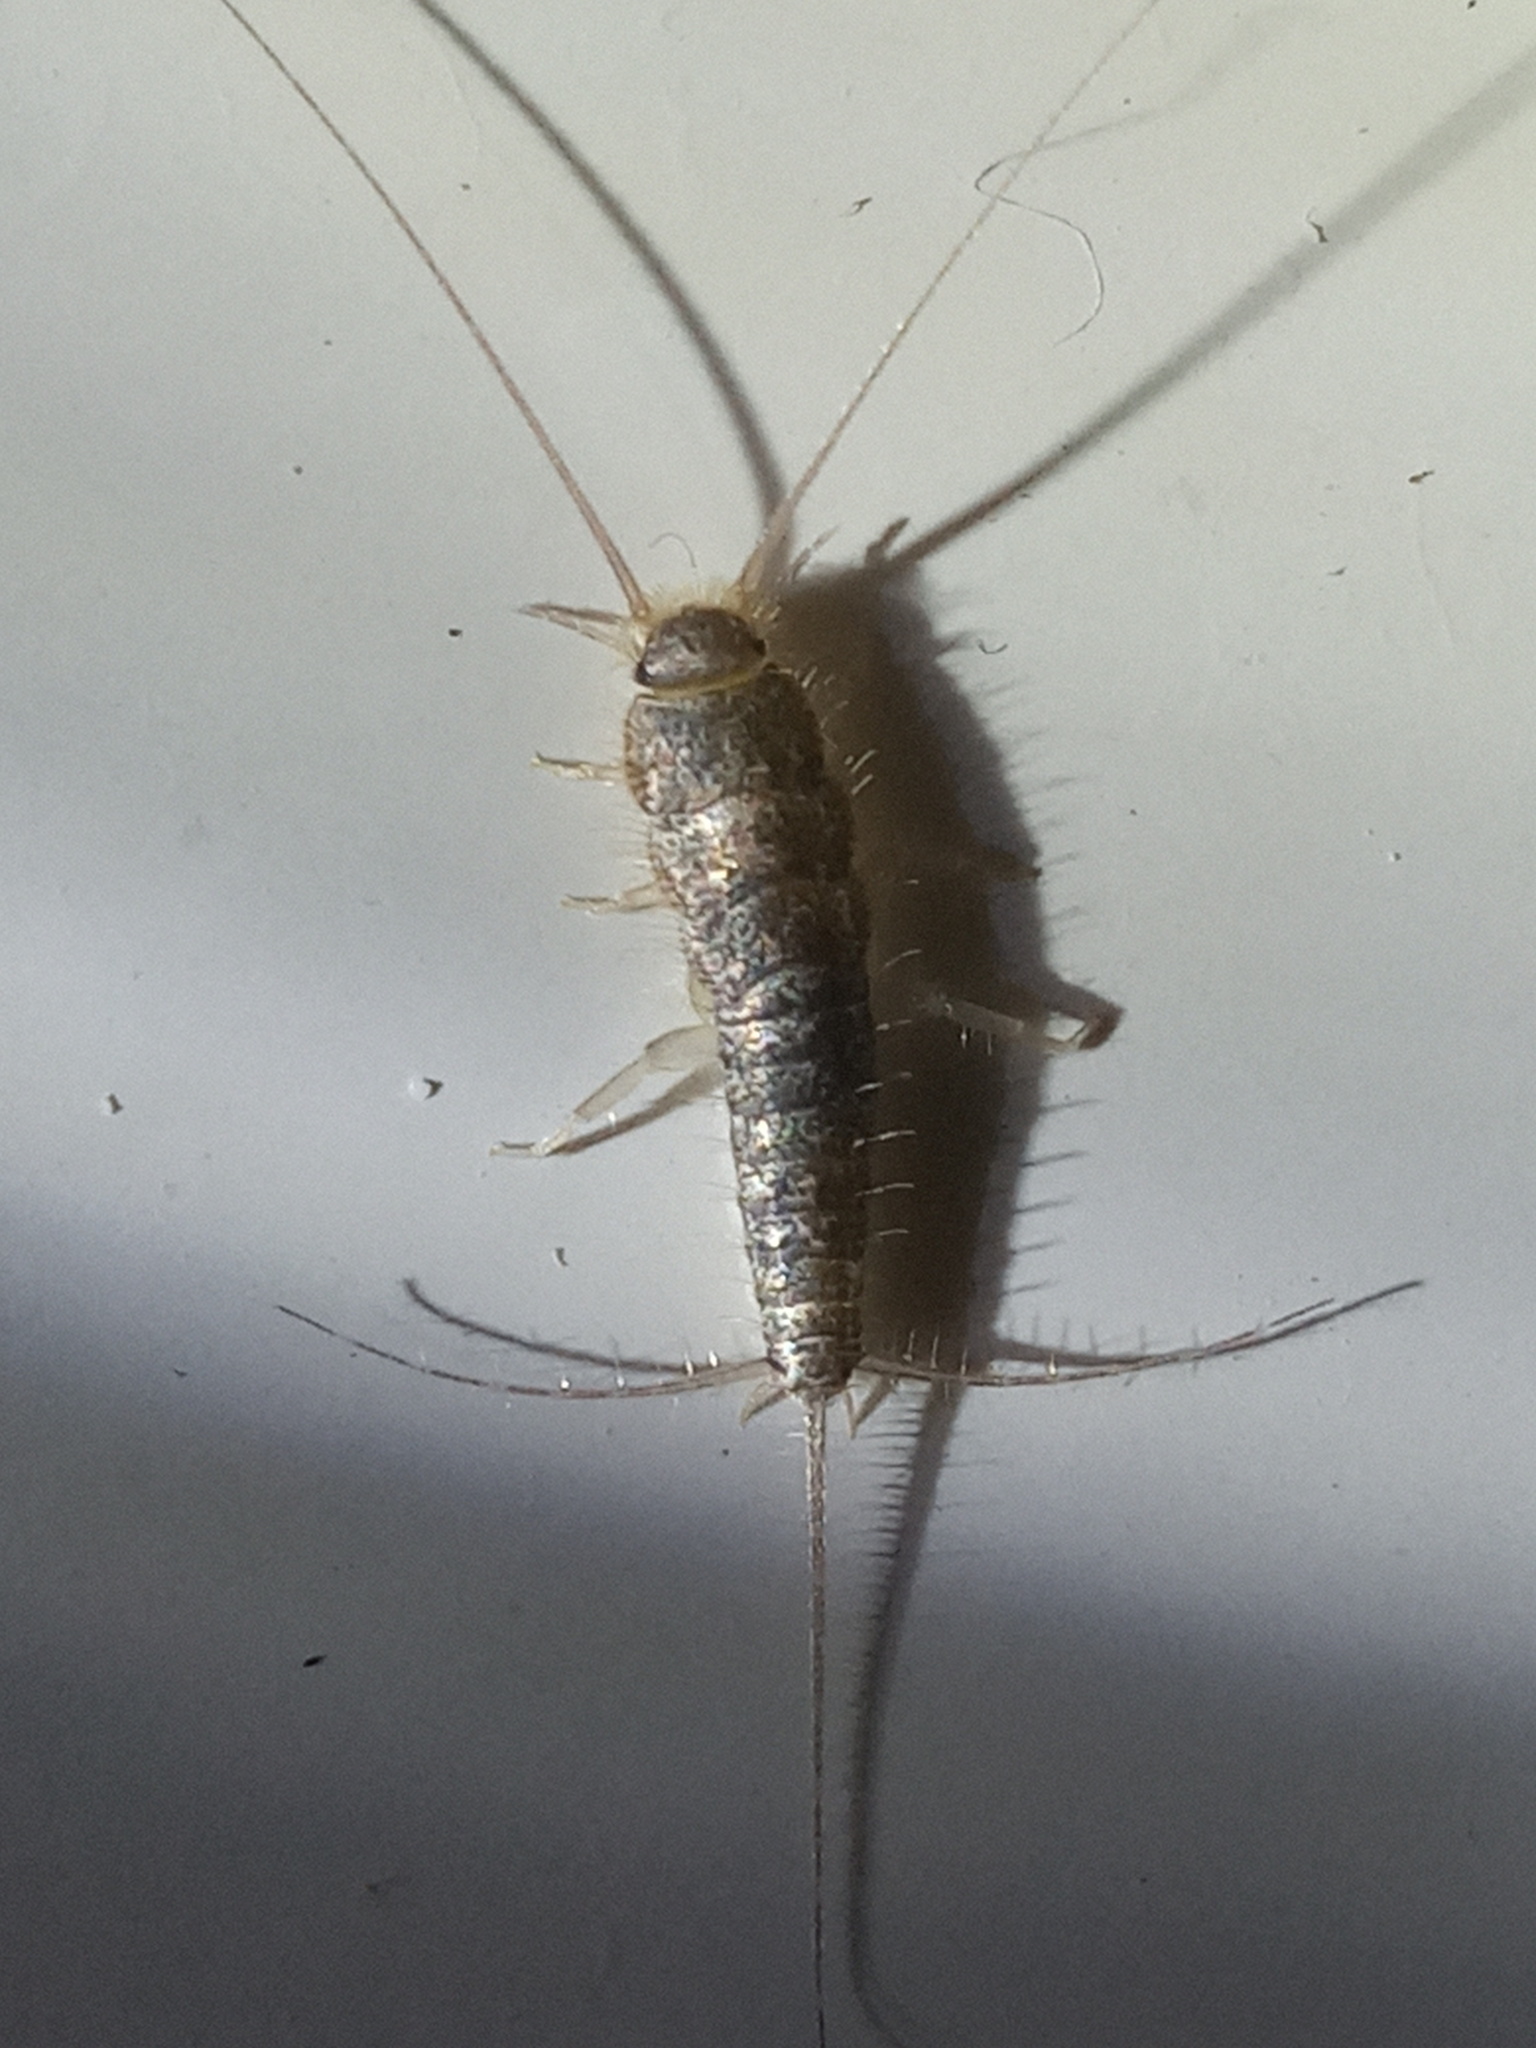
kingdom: Animalia
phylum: Arthropoda
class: Insecta
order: Zygentoma
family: Lepismatidae
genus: Ctenolepisma
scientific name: Ctenolepisma longicaudatum
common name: Silverfish
